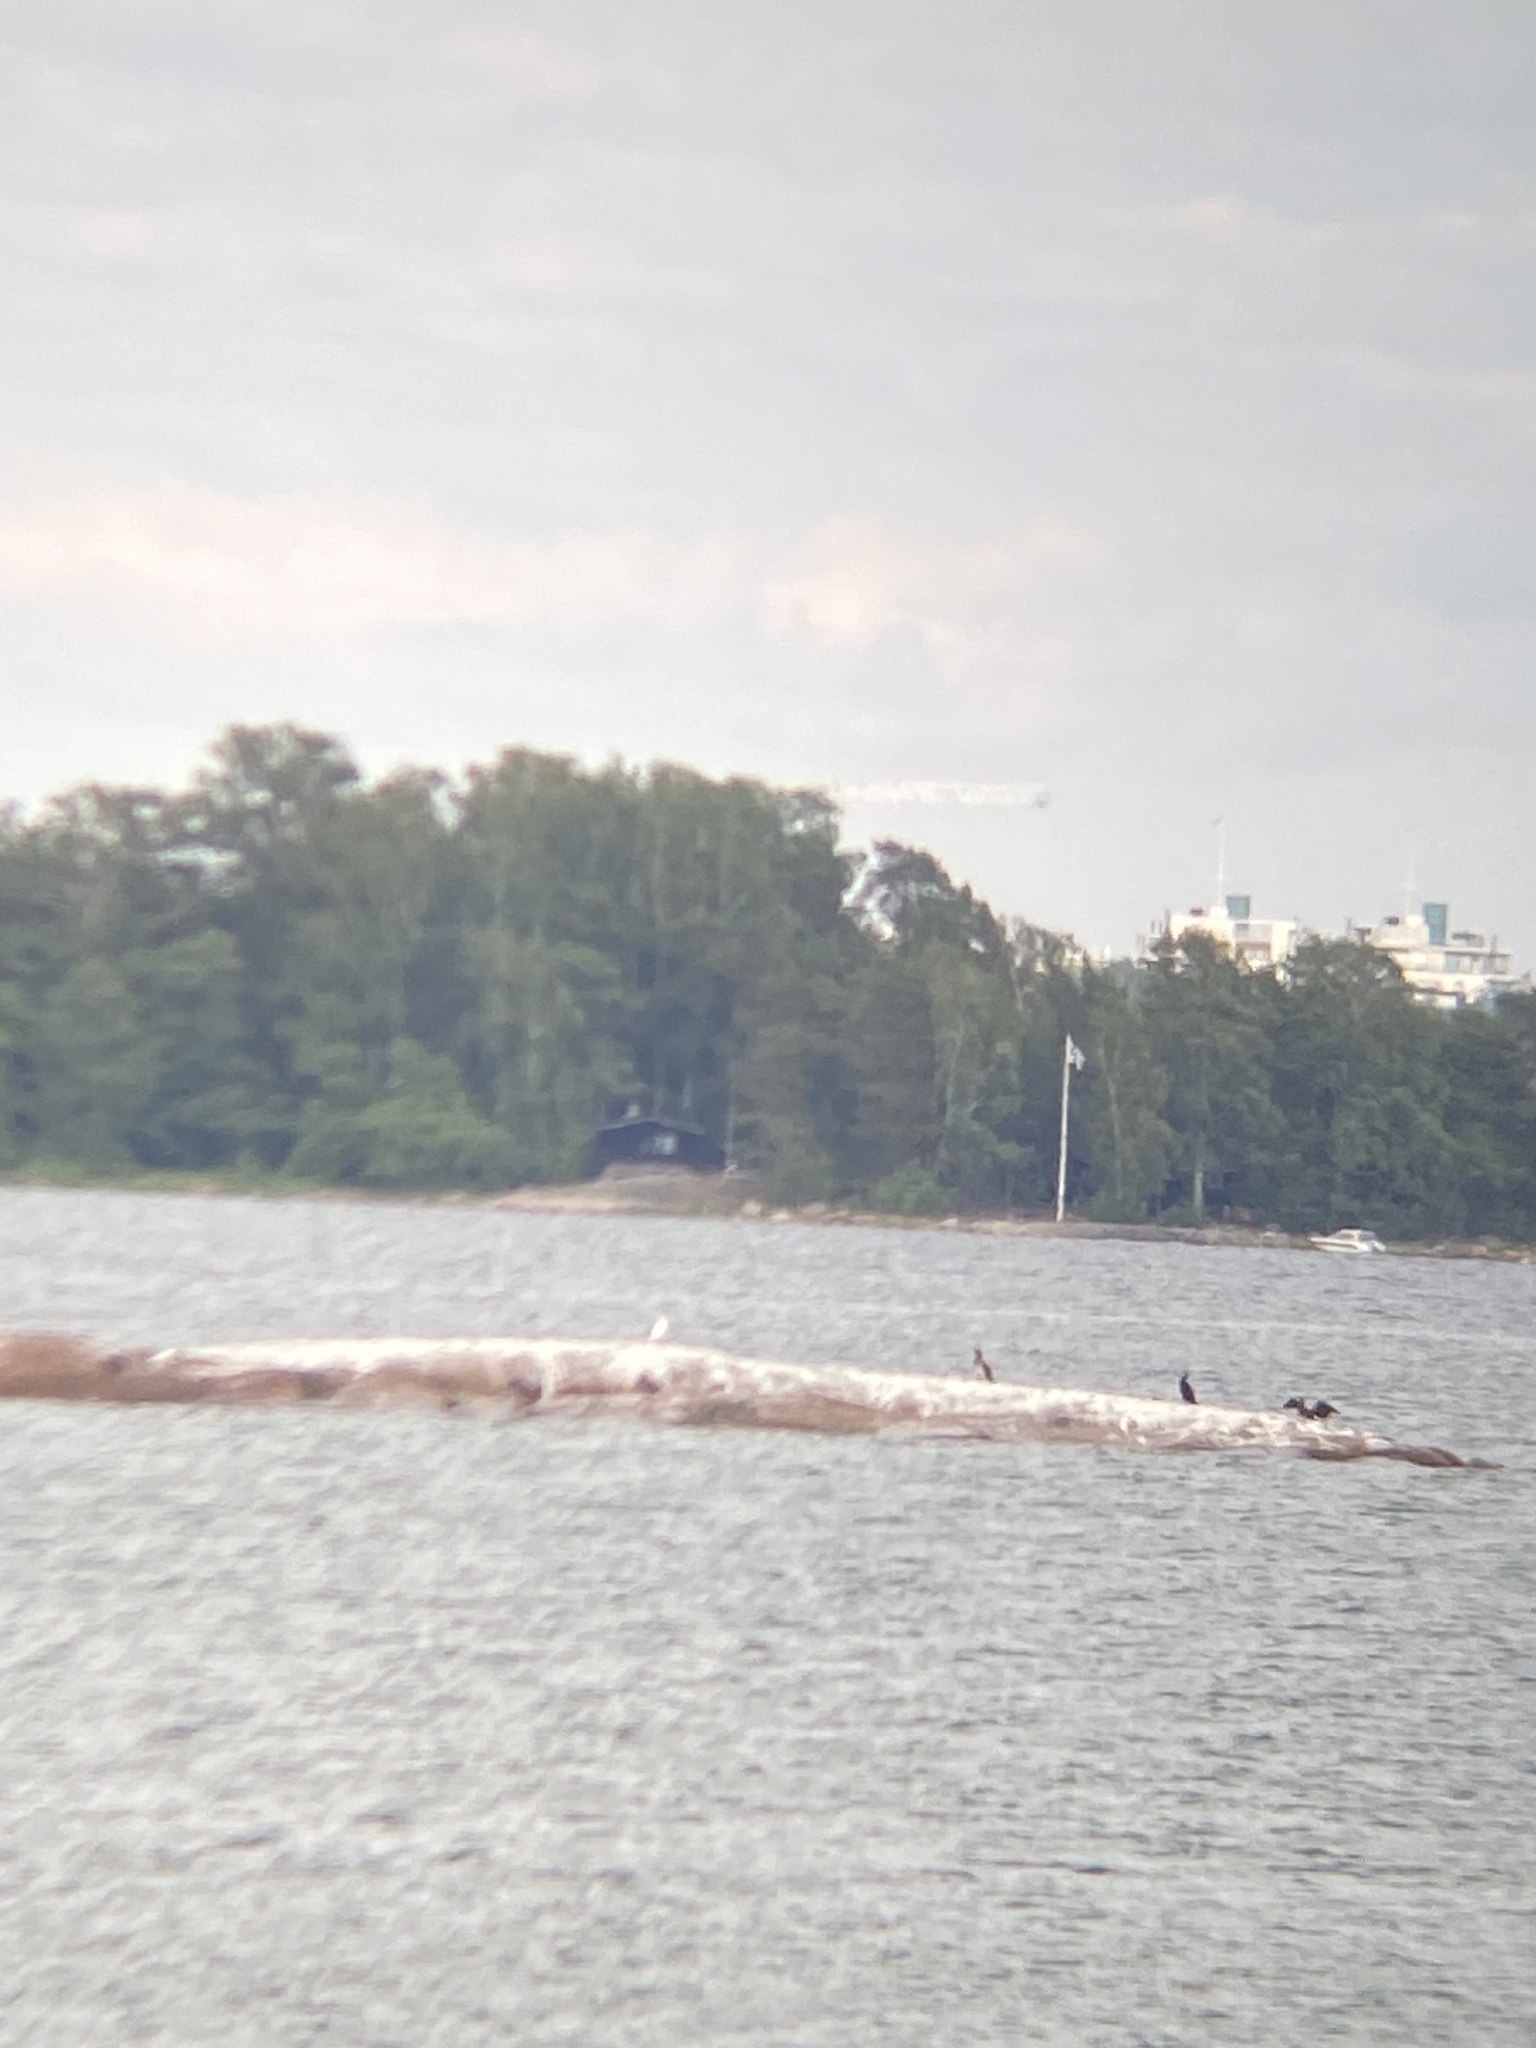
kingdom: Animalia
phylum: Chordata
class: Aves
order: Suliformes
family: Phalacrocoracidae
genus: Phalacrocorax
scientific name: Phalacrocorax carbo
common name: Great cormorant
